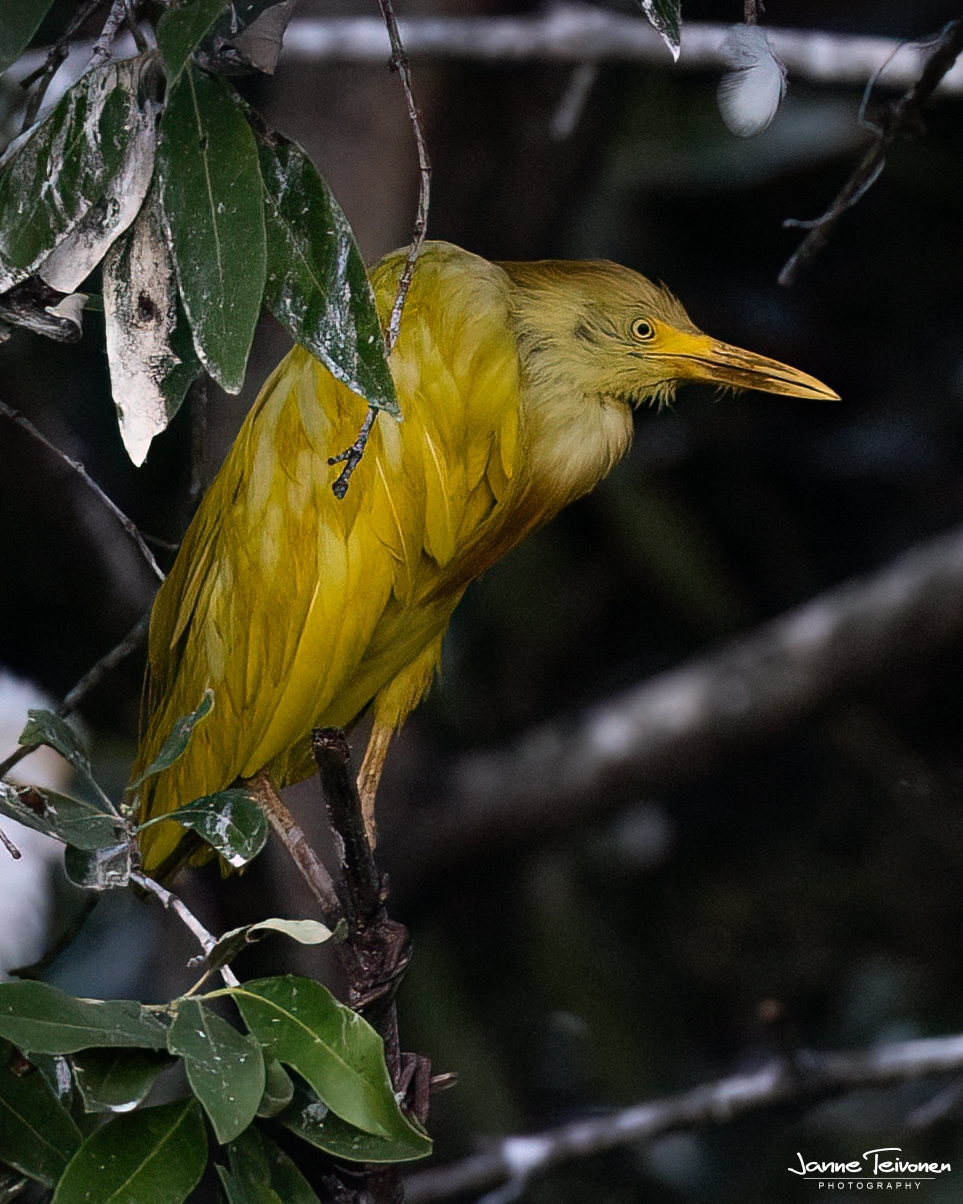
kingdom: Animalia
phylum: Chordata
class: Aves
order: Pelecaniformes
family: Ardeidae
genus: Bubulcus
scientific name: Bubulcus ibis
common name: Cattle egret
